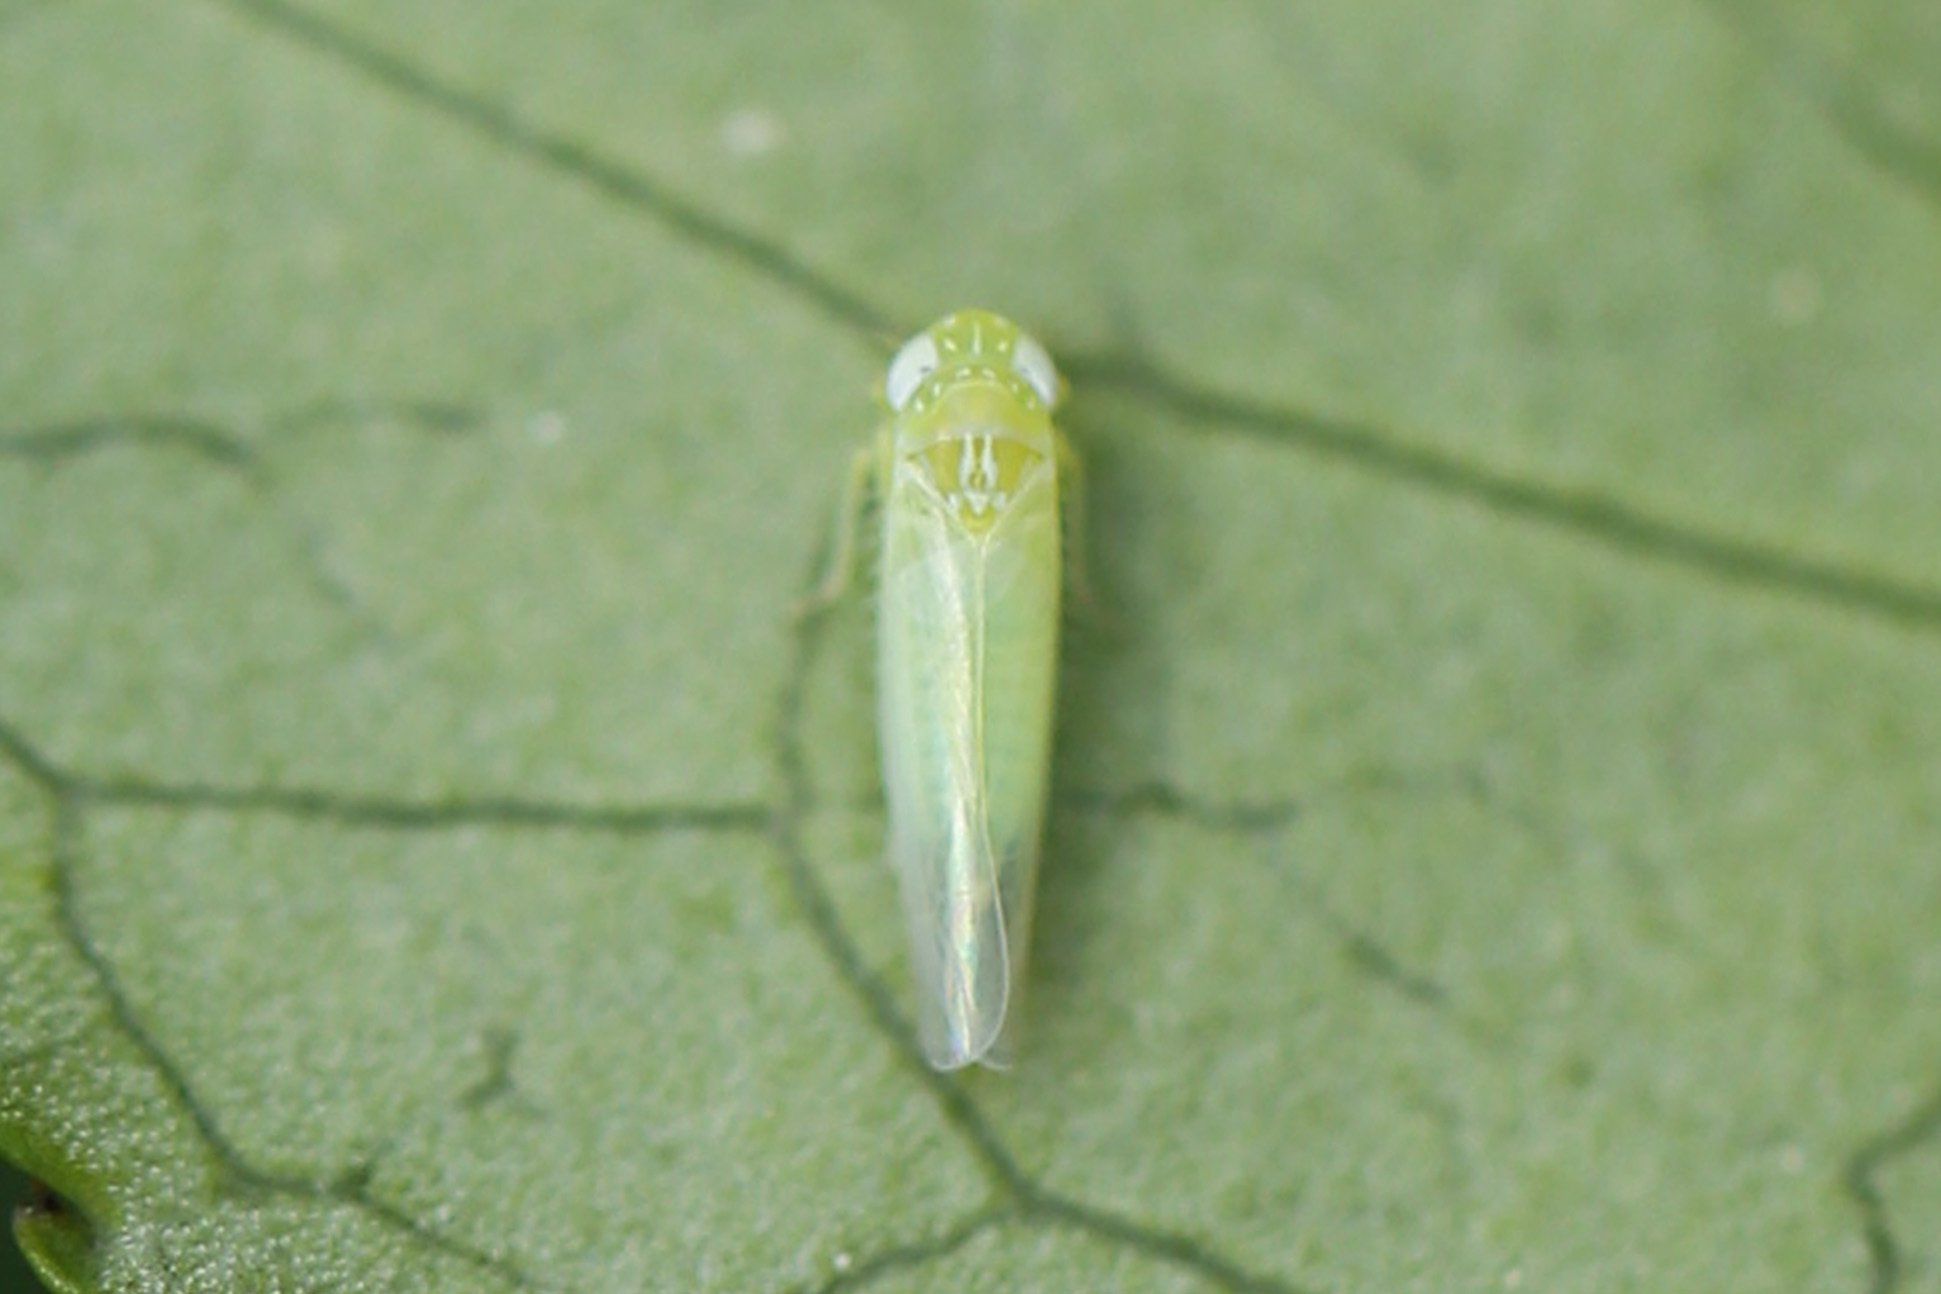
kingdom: Animalia
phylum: Arthropoda
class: Insecta
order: Hemiptera
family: Cicadellidae
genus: Empoasca
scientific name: Empoasca fabae
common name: Potato leafhopper
